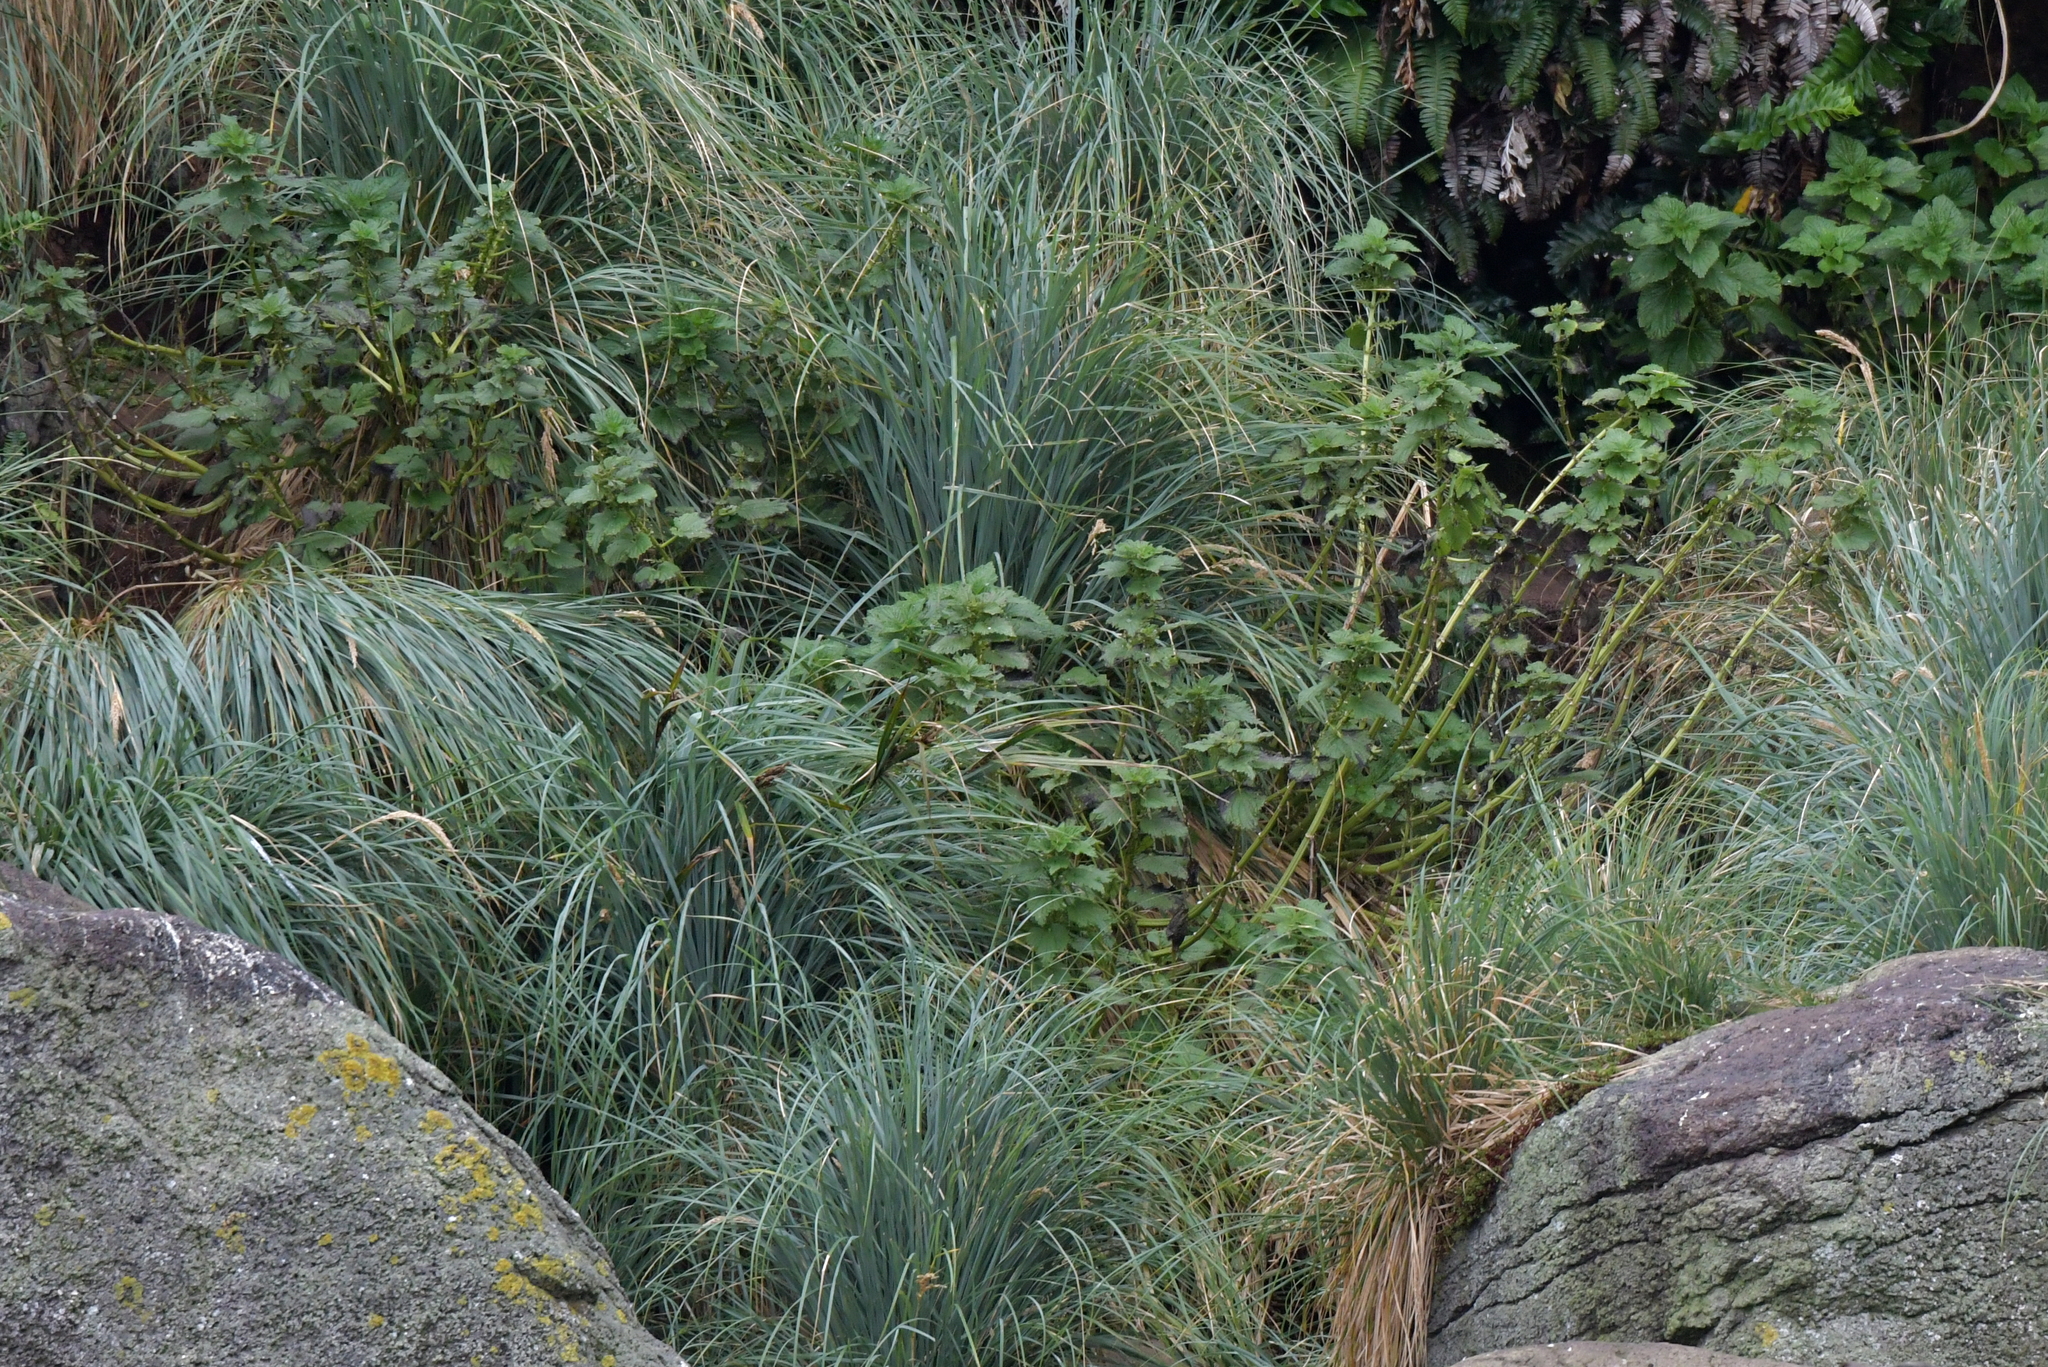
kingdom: Plantae
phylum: Tracheophyta
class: Magnoliopsida
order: Rosales
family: Urticaceae
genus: Urtica
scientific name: Urtica australis
